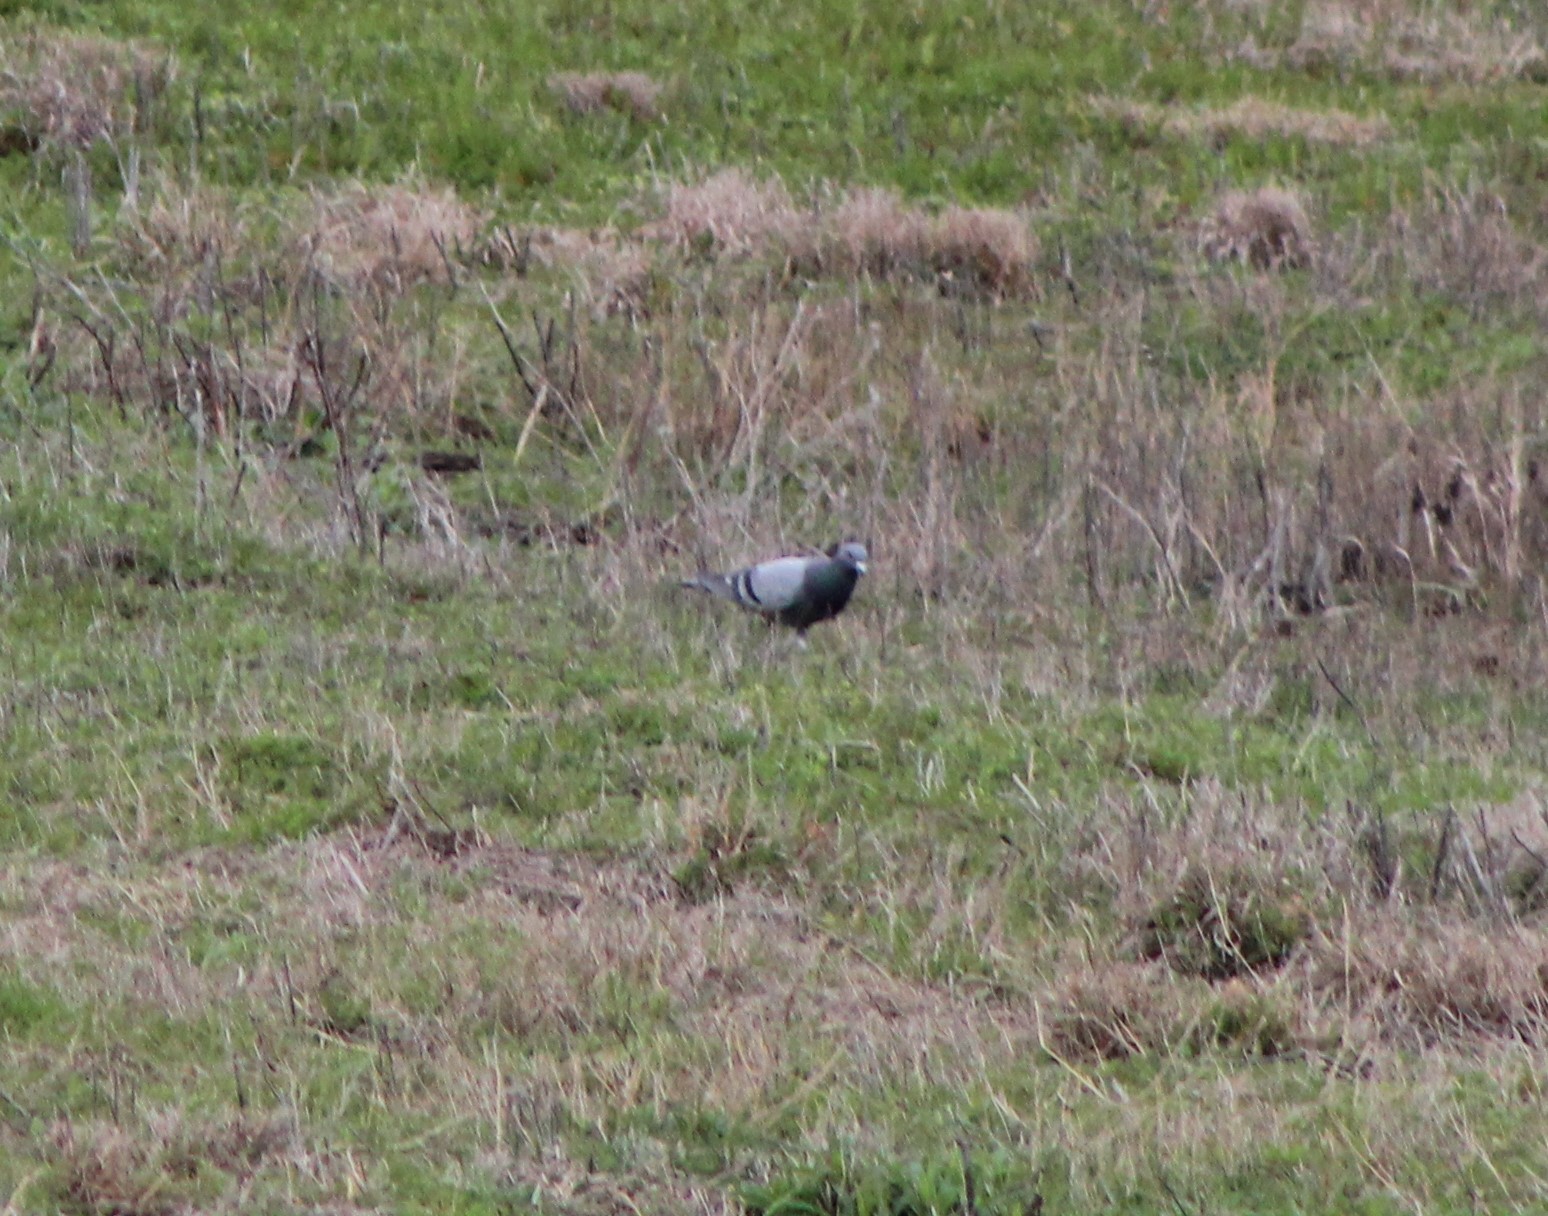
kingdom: Animalia
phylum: Chordata
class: Aves
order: Columbiformes
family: Columbidae
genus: Columba
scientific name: Columba livia
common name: Rock pigeon
